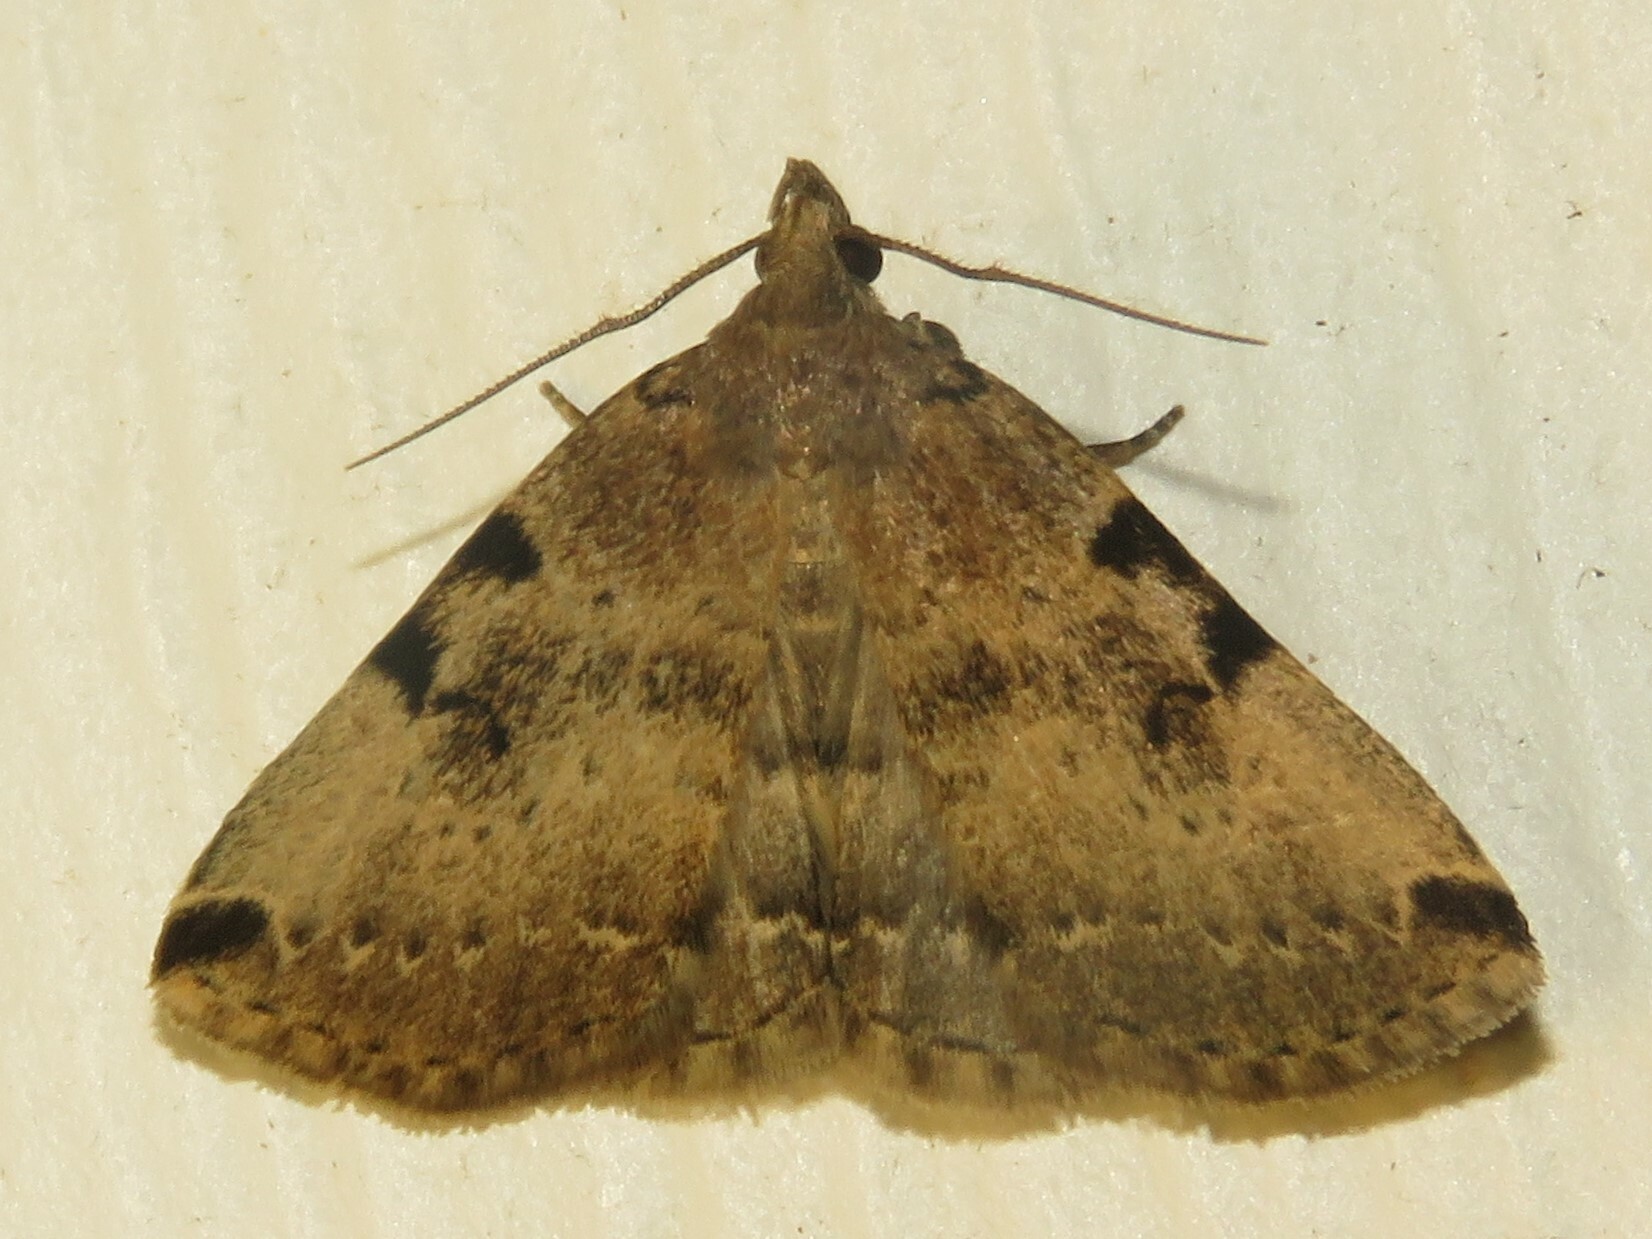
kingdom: Animalia
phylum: Arthropoda
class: Insecta
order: Lepidoptera
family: Erebidae
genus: Zanclognatha
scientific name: Zanclognatha lituralis
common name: Lettered fan-foot
